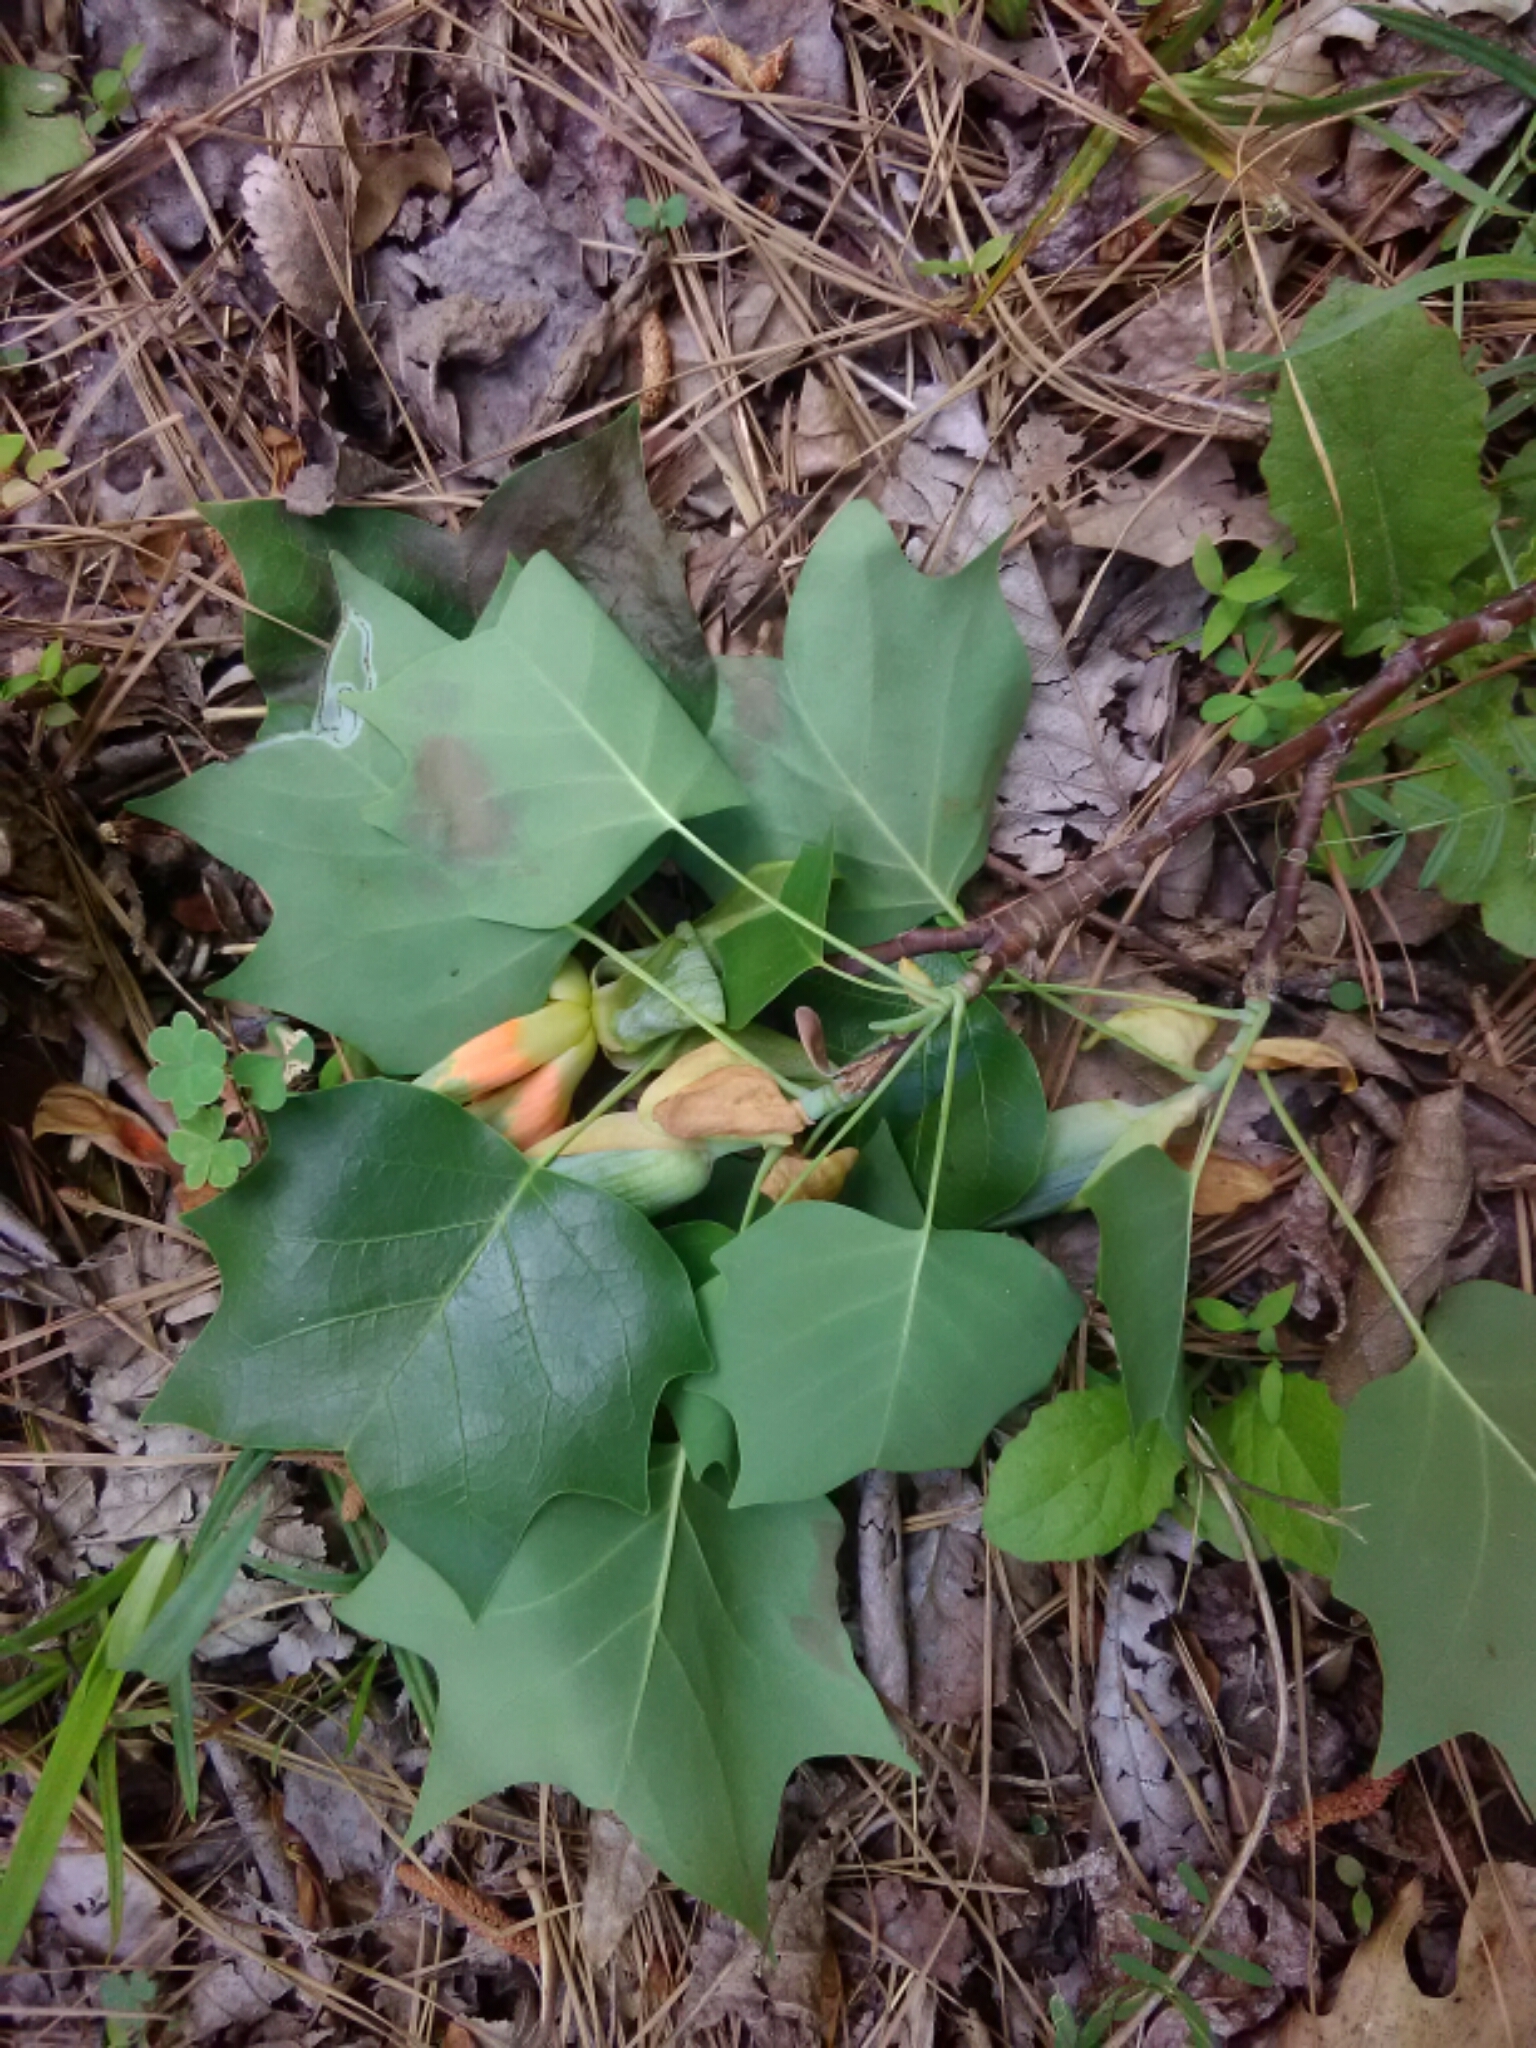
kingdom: Plantae
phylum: Tracheophyta
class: Magnoliopsida
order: Magnoliales
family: Magnoliaceae
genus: Liriodendron
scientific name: Liriodendron tulipifera
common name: Tulip tree
